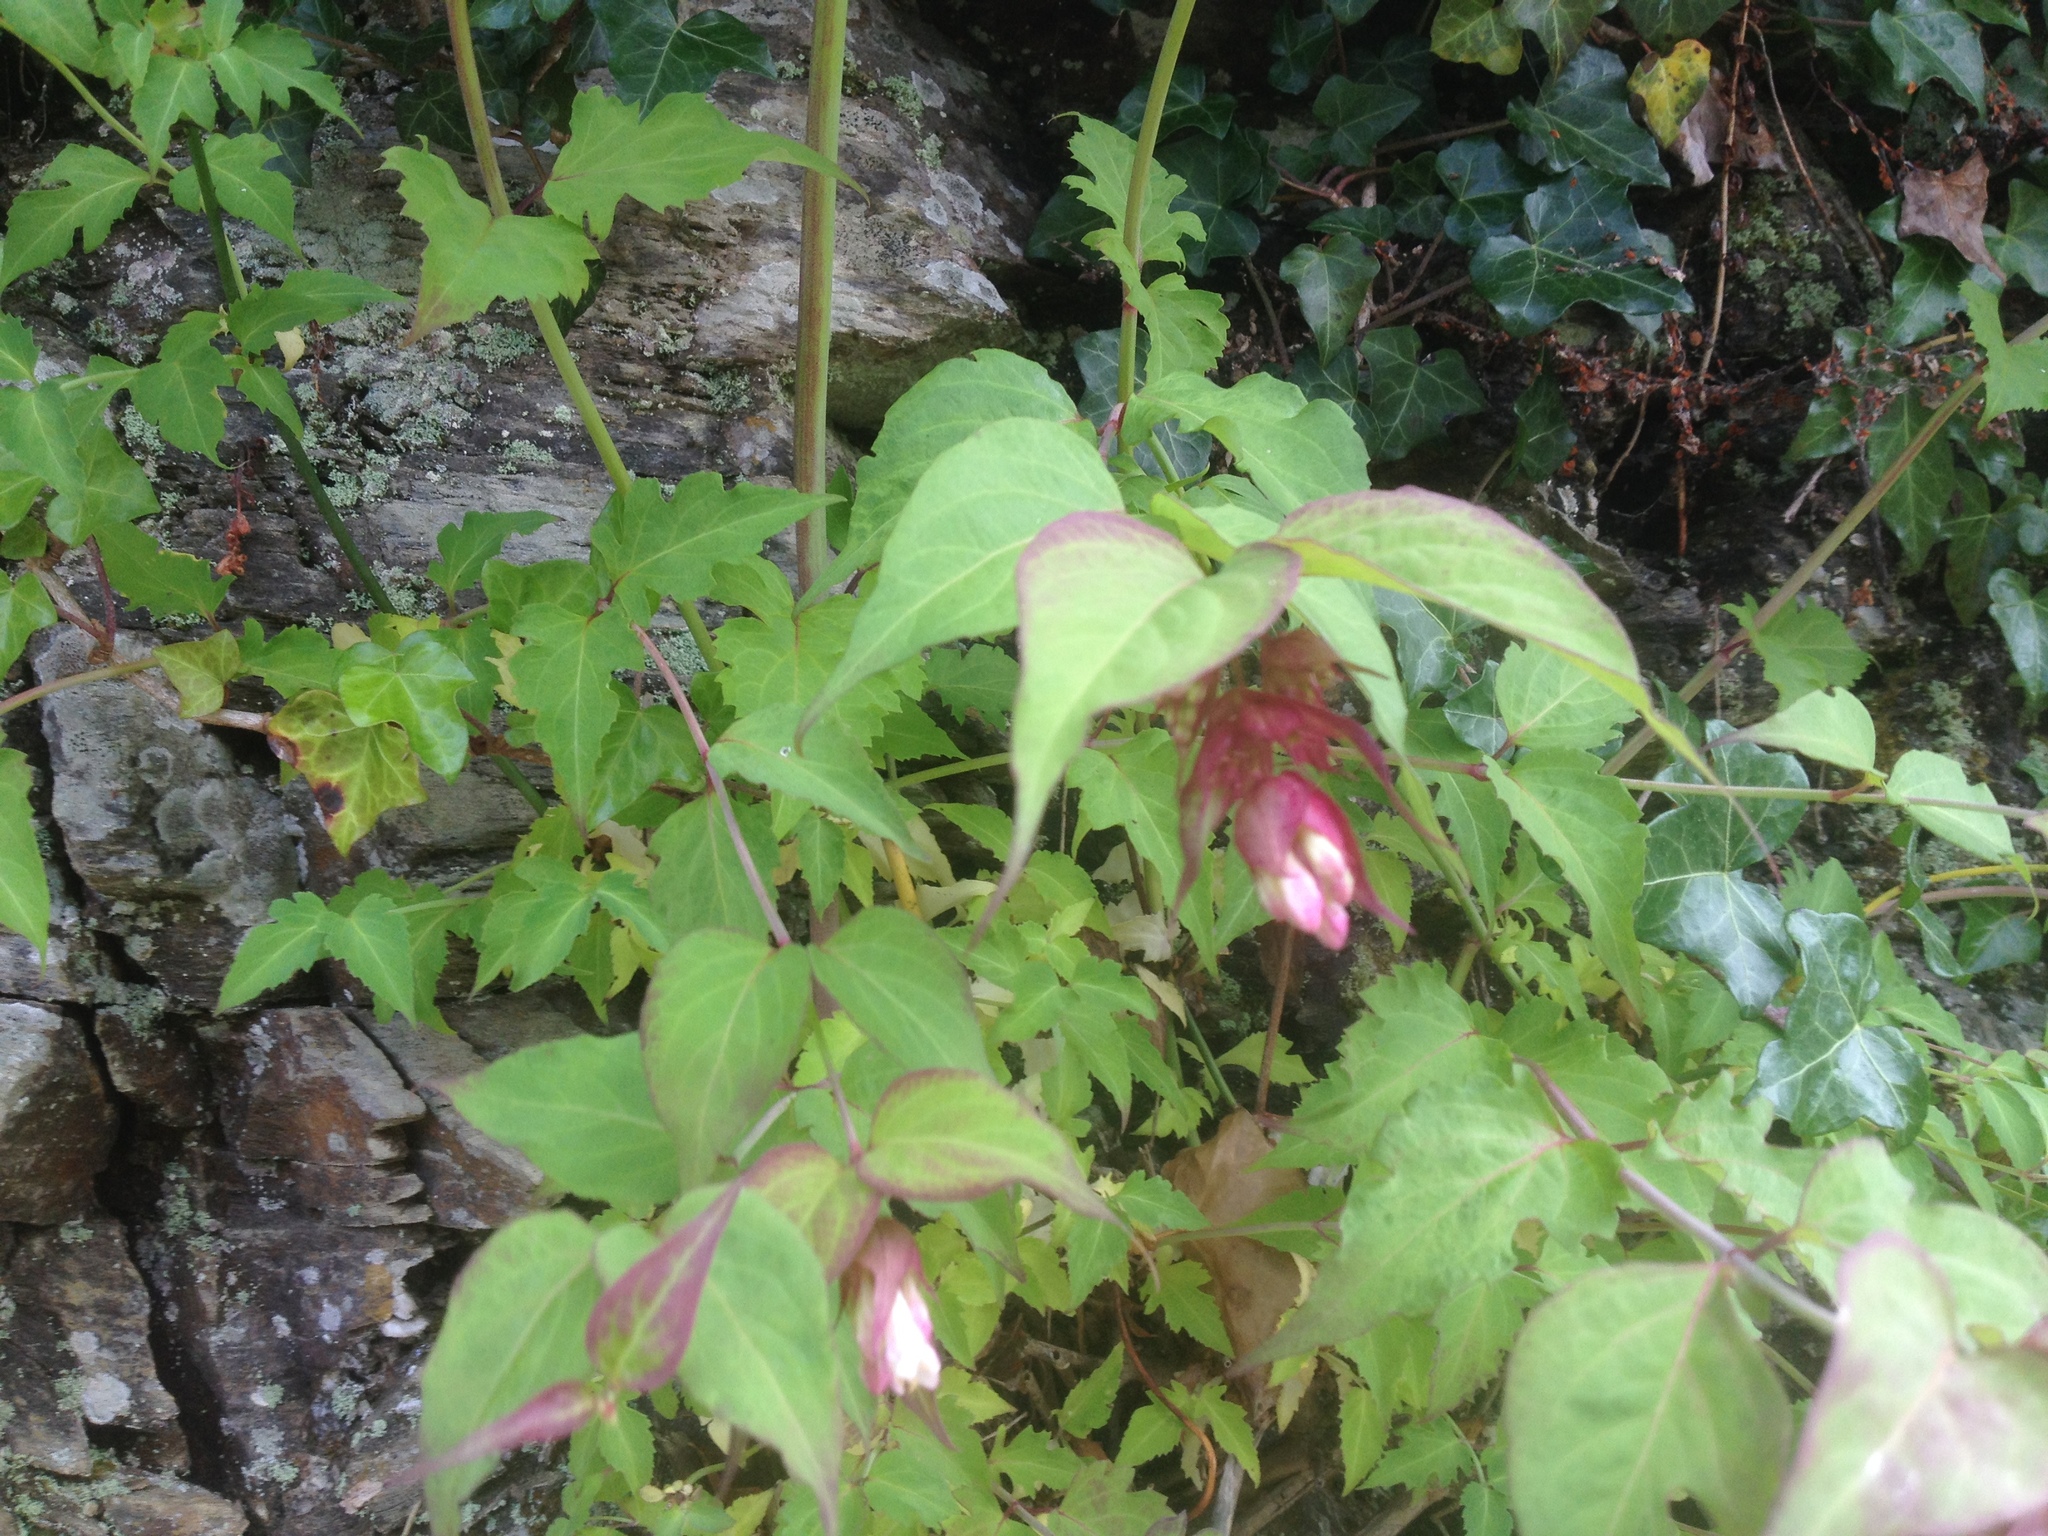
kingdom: Plantae
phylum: Tracheophyta
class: Magnoliopsida
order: Dipsacales
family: Caprifoliaceae
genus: Leycesteria
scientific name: Leycesteria formosa
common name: Himalayan honeysuckle
